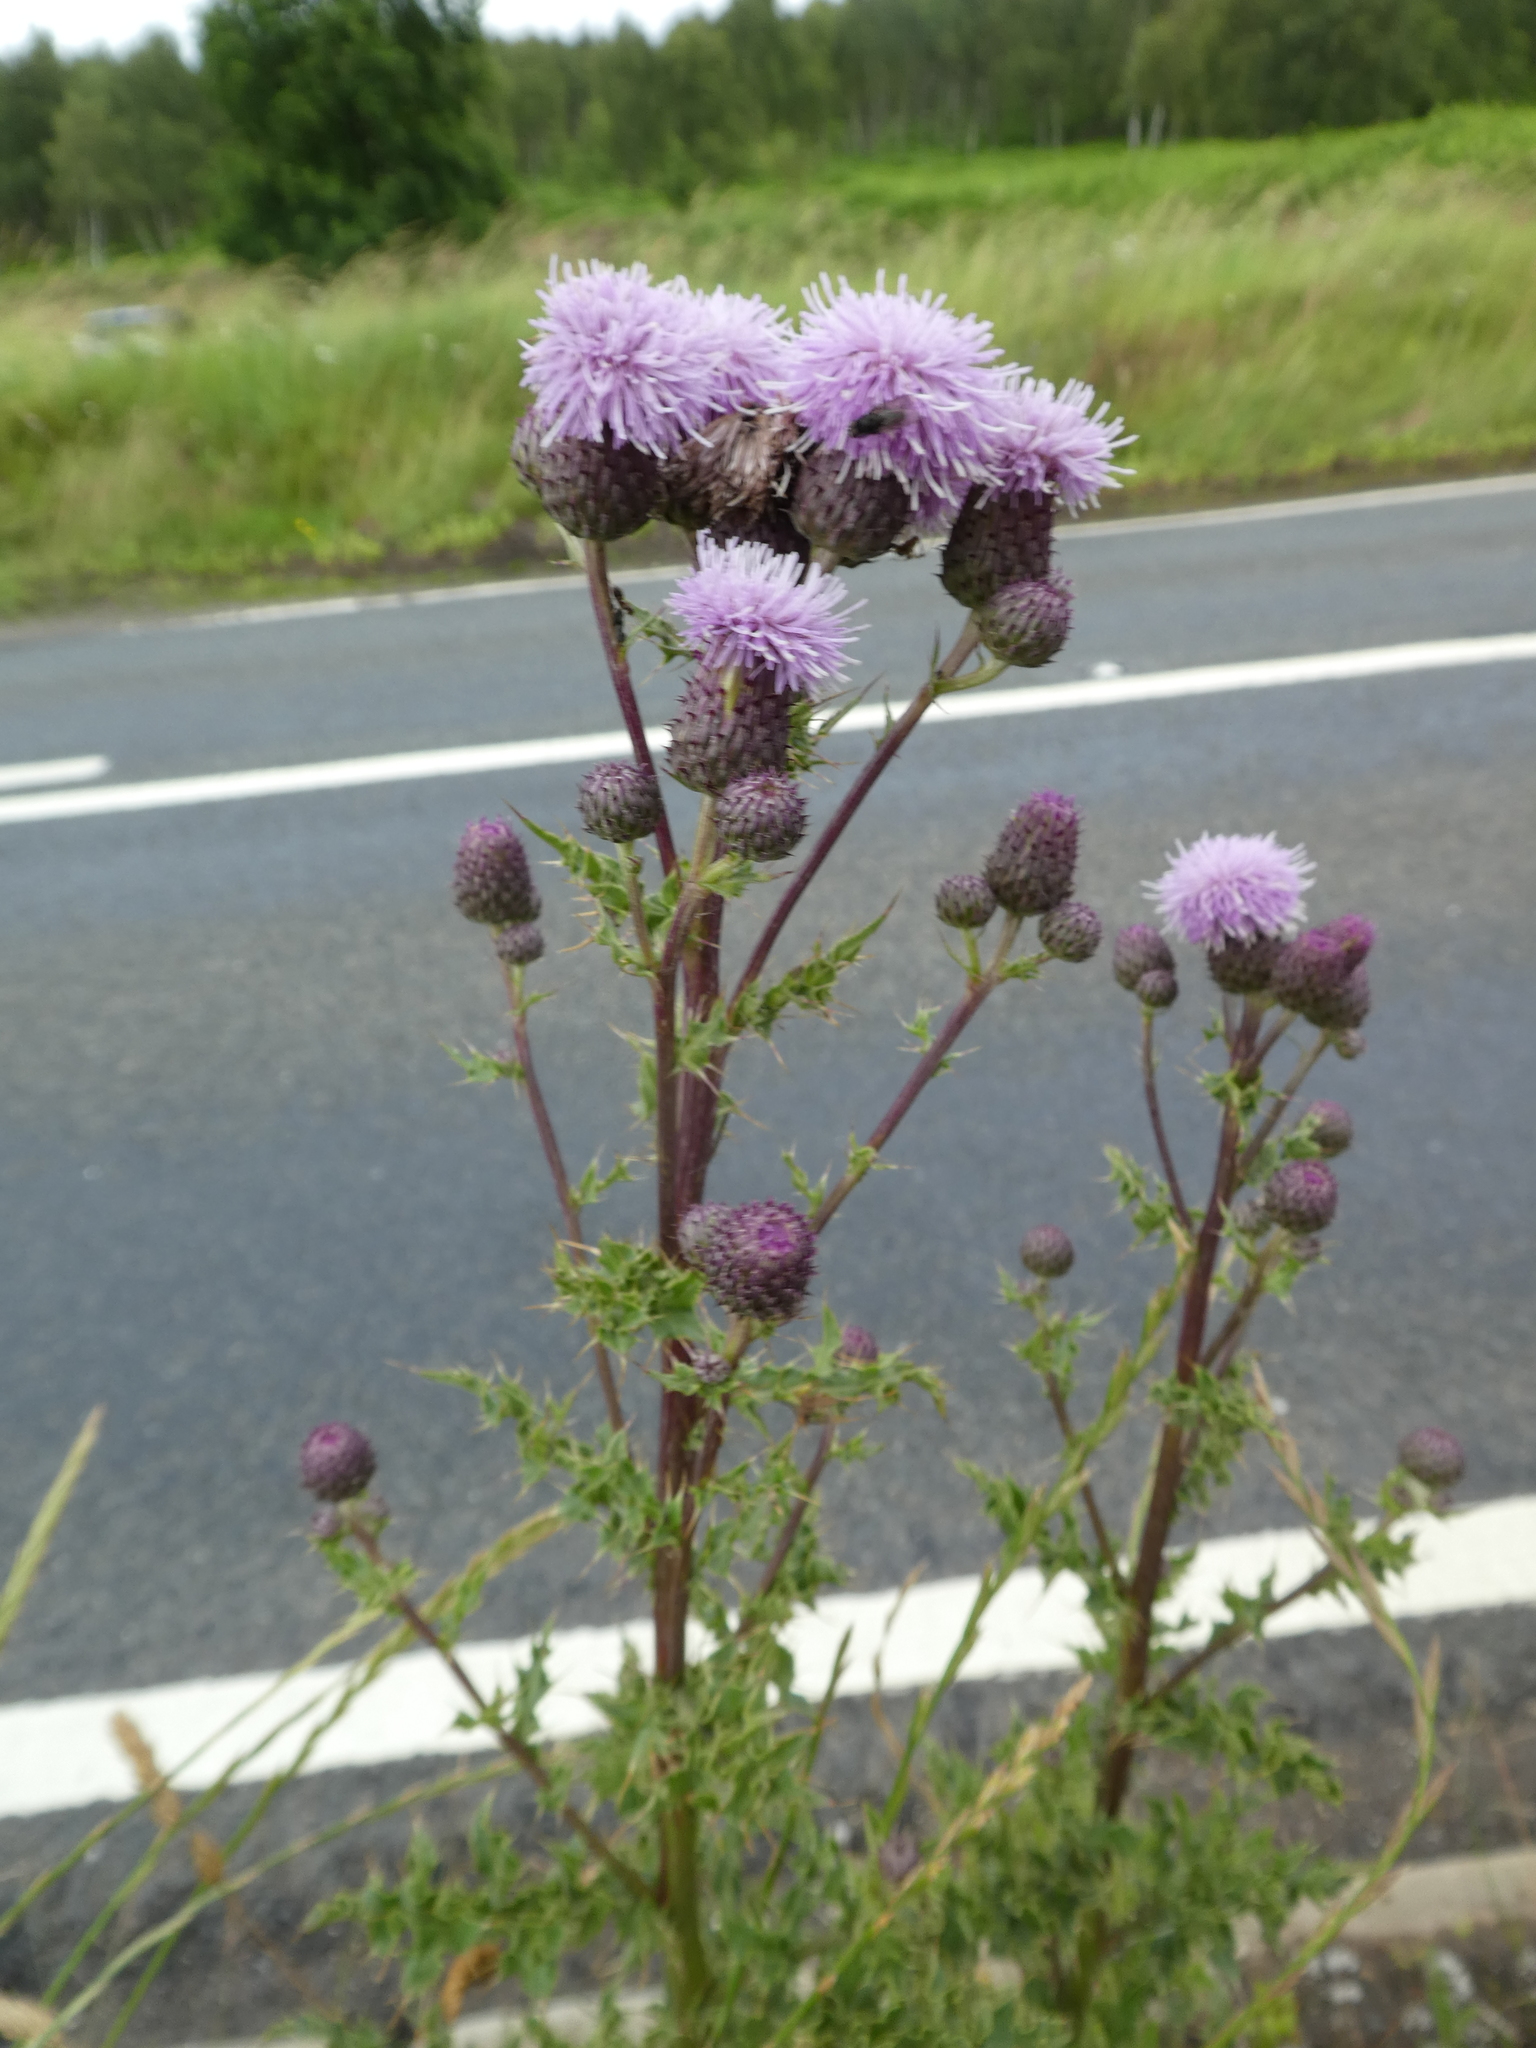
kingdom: Plantae
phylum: Tracheophyta
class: Magnoliopsida
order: Asterales
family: Asteraceae
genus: Cirsium
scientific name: Cirsium arvense
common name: Creeping thistle
